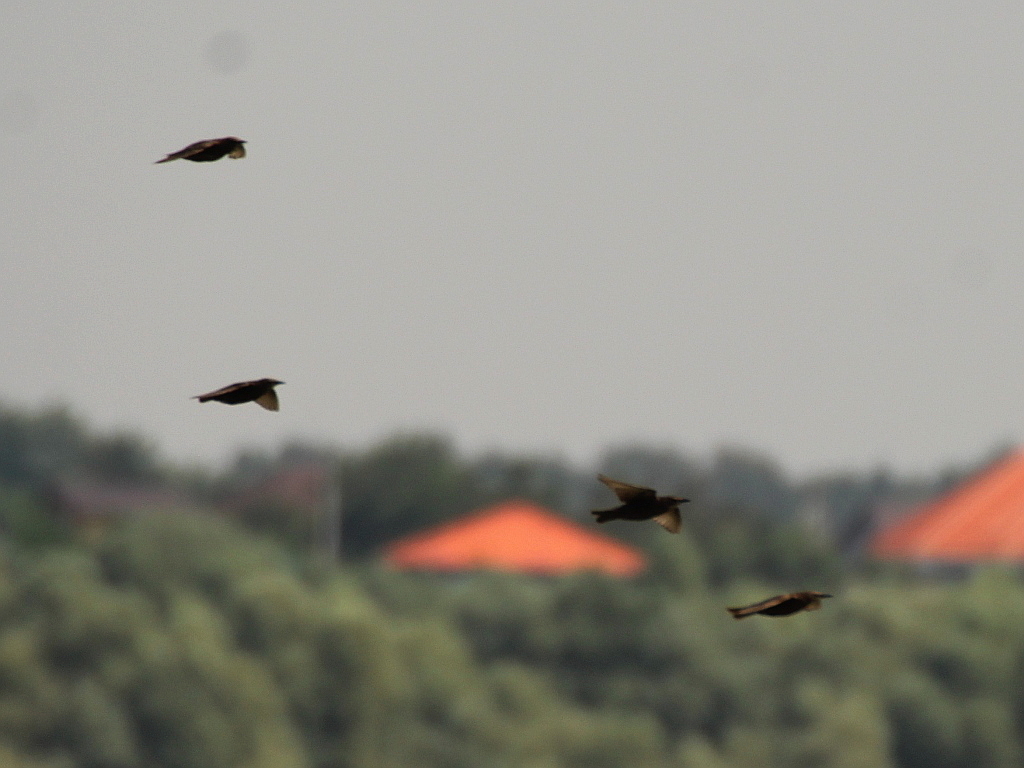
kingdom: Animalia
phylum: Chordata
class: Aves
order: Passeriformes
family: Sturnidae
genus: Sturnus
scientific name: Sturnus vulgaris
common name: Common starling
